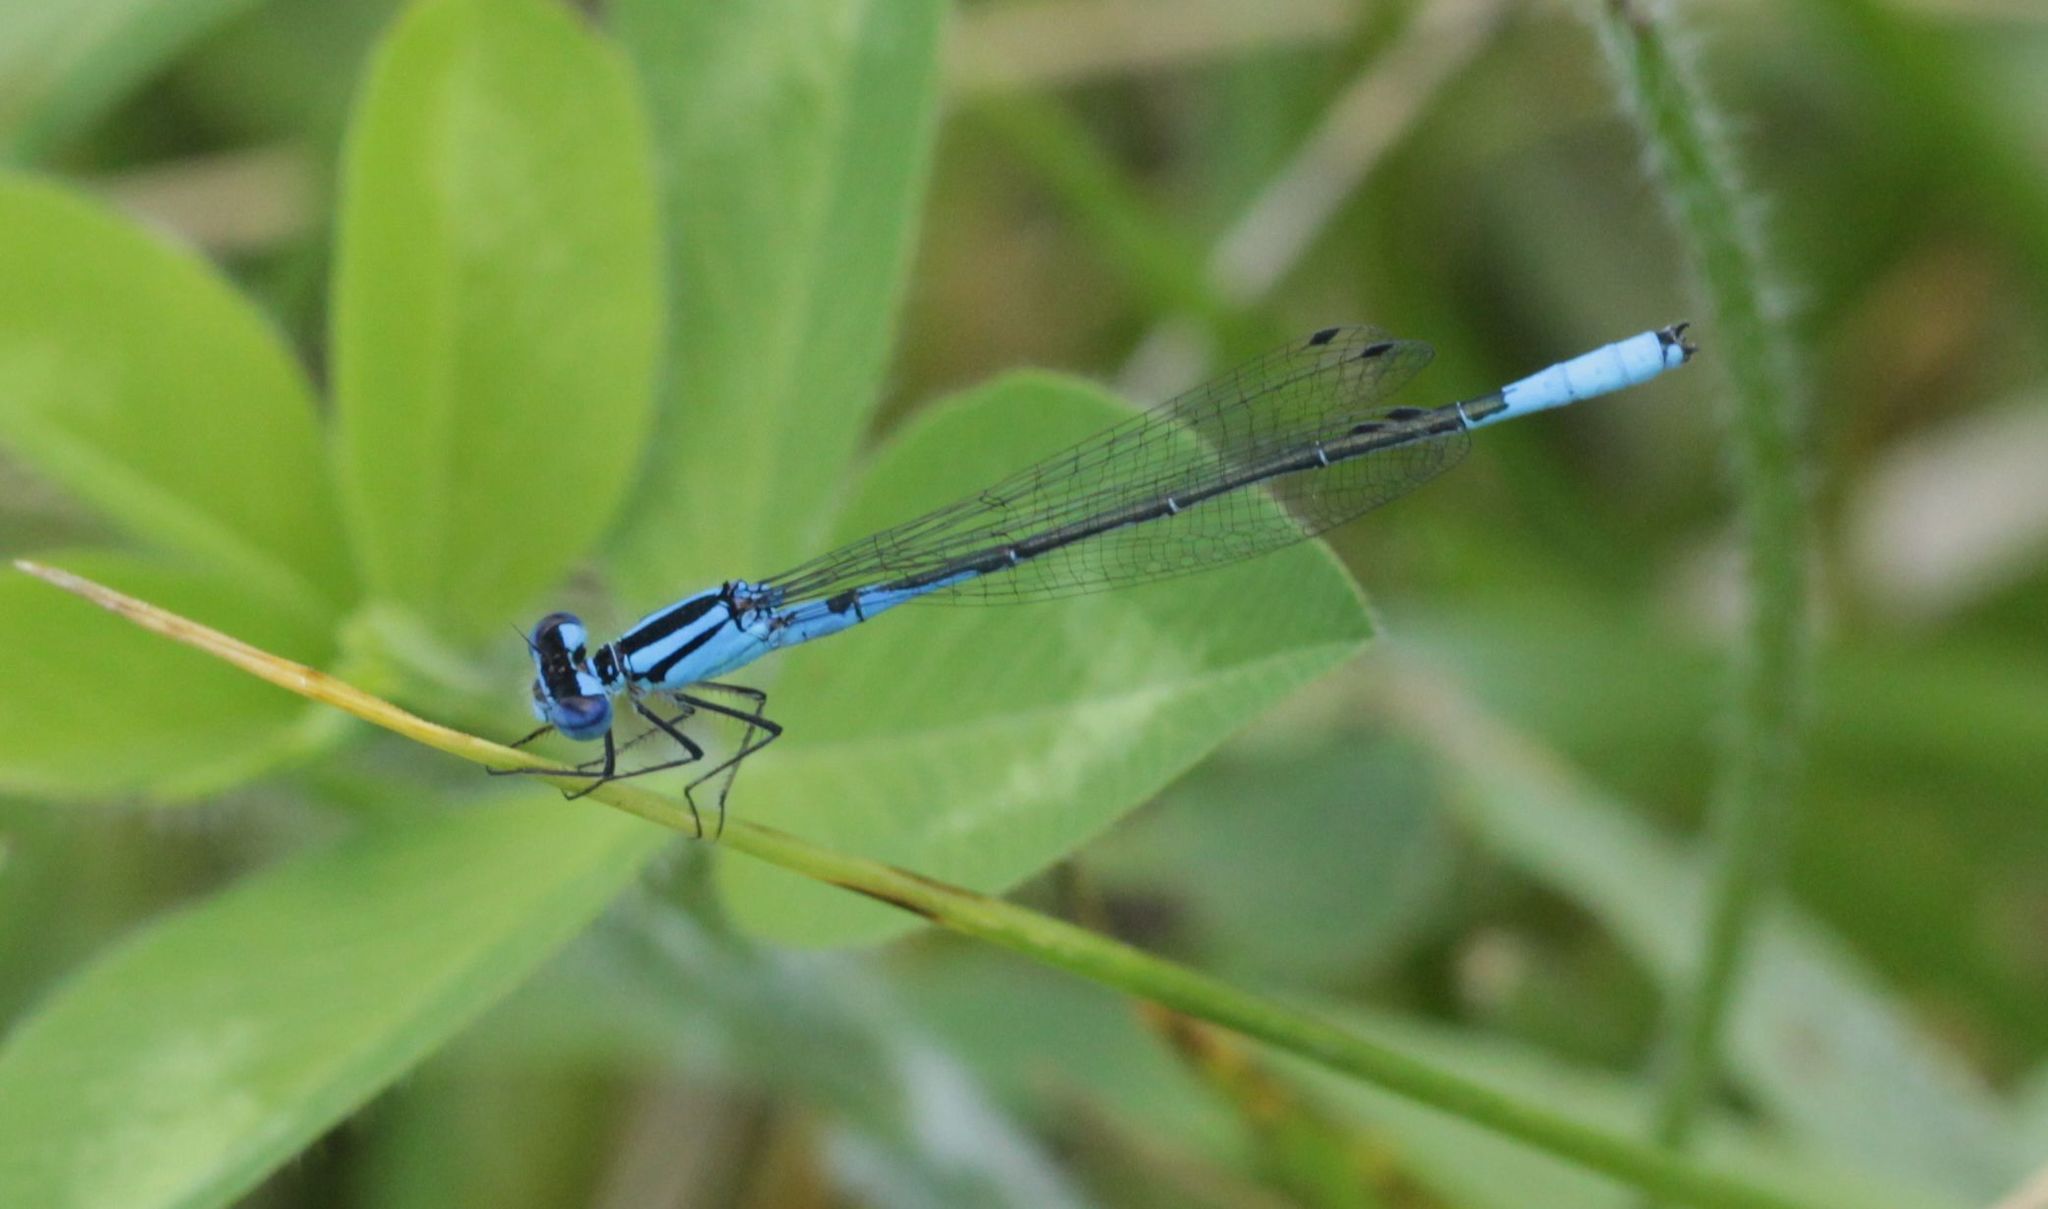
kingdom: Animalia
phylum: Arthropoda
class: Insecta
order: Odonata
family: Coenagrionidae
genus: Enallagma
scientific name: Enallagma aspersum
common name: Azure bluet
